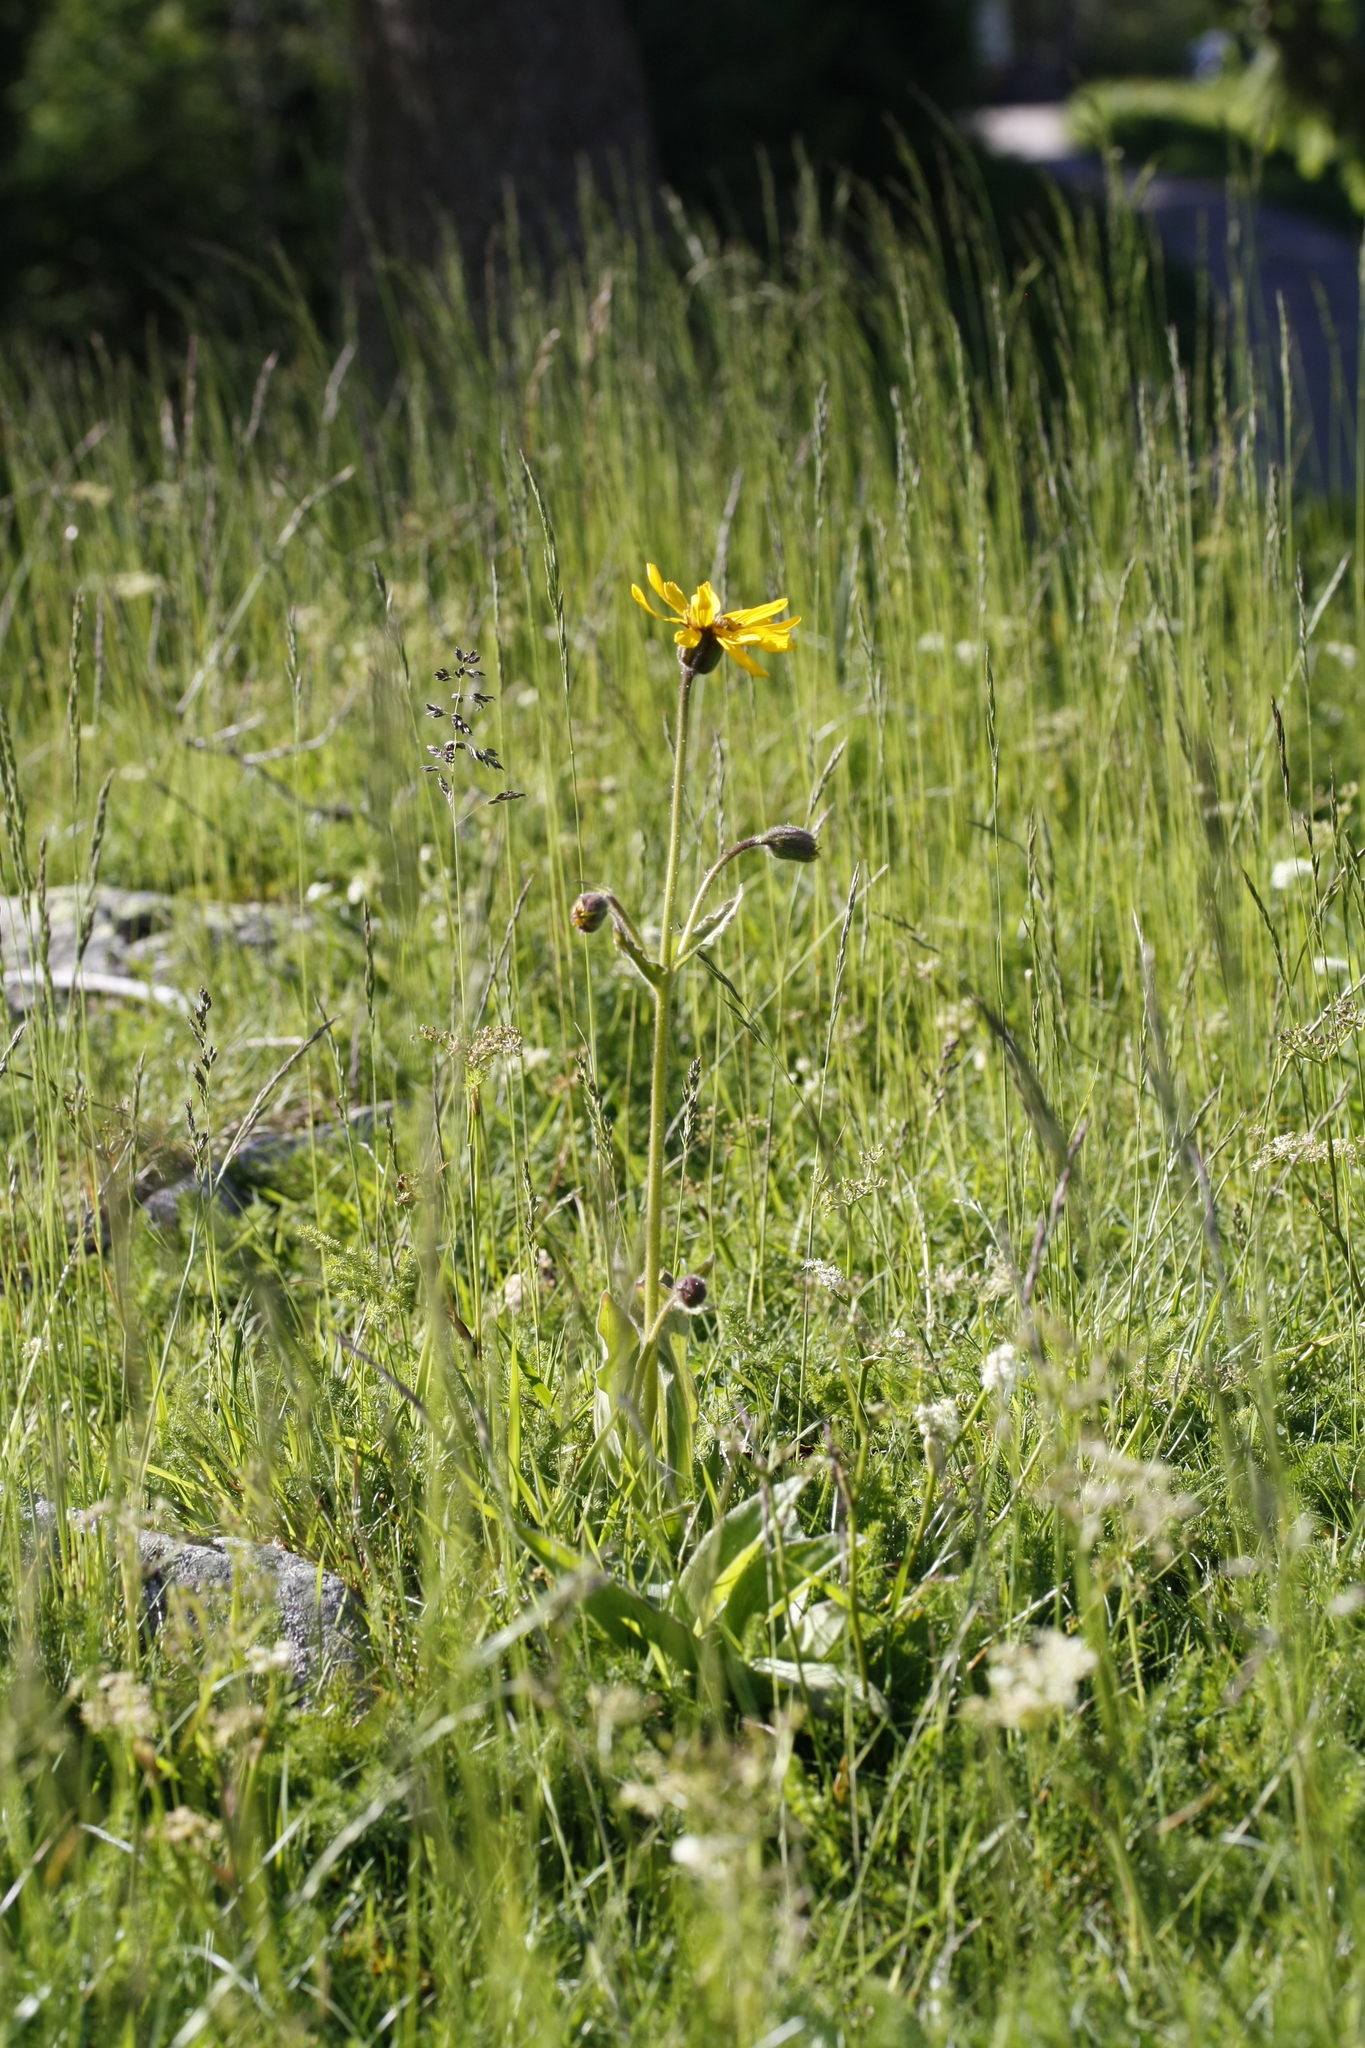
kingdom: Plantae
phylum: Tracheophyta
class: Magnoliopsida
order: Asterales
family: Asteraceae
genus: Arnica
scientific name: Arnica montana
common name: Leopard's bane
